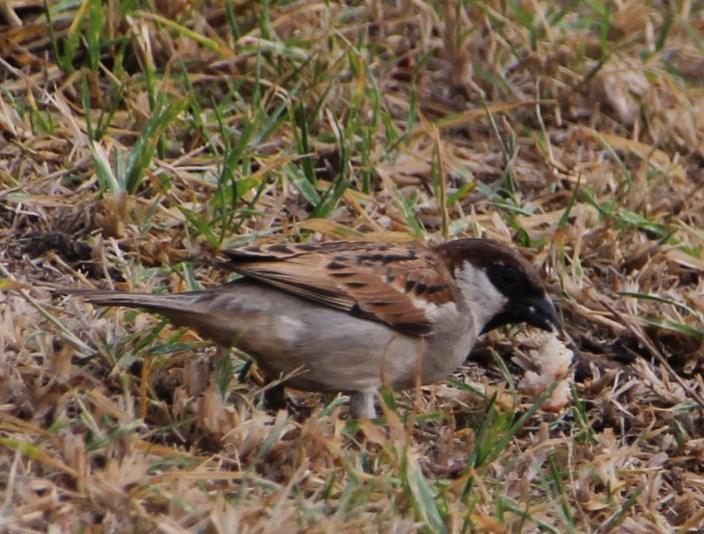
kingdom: Animalia
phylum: Chordata
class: Aves
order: Passeriformes
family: Passeridae
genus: Passer
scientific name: Passer domesticus
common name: House sparrow
